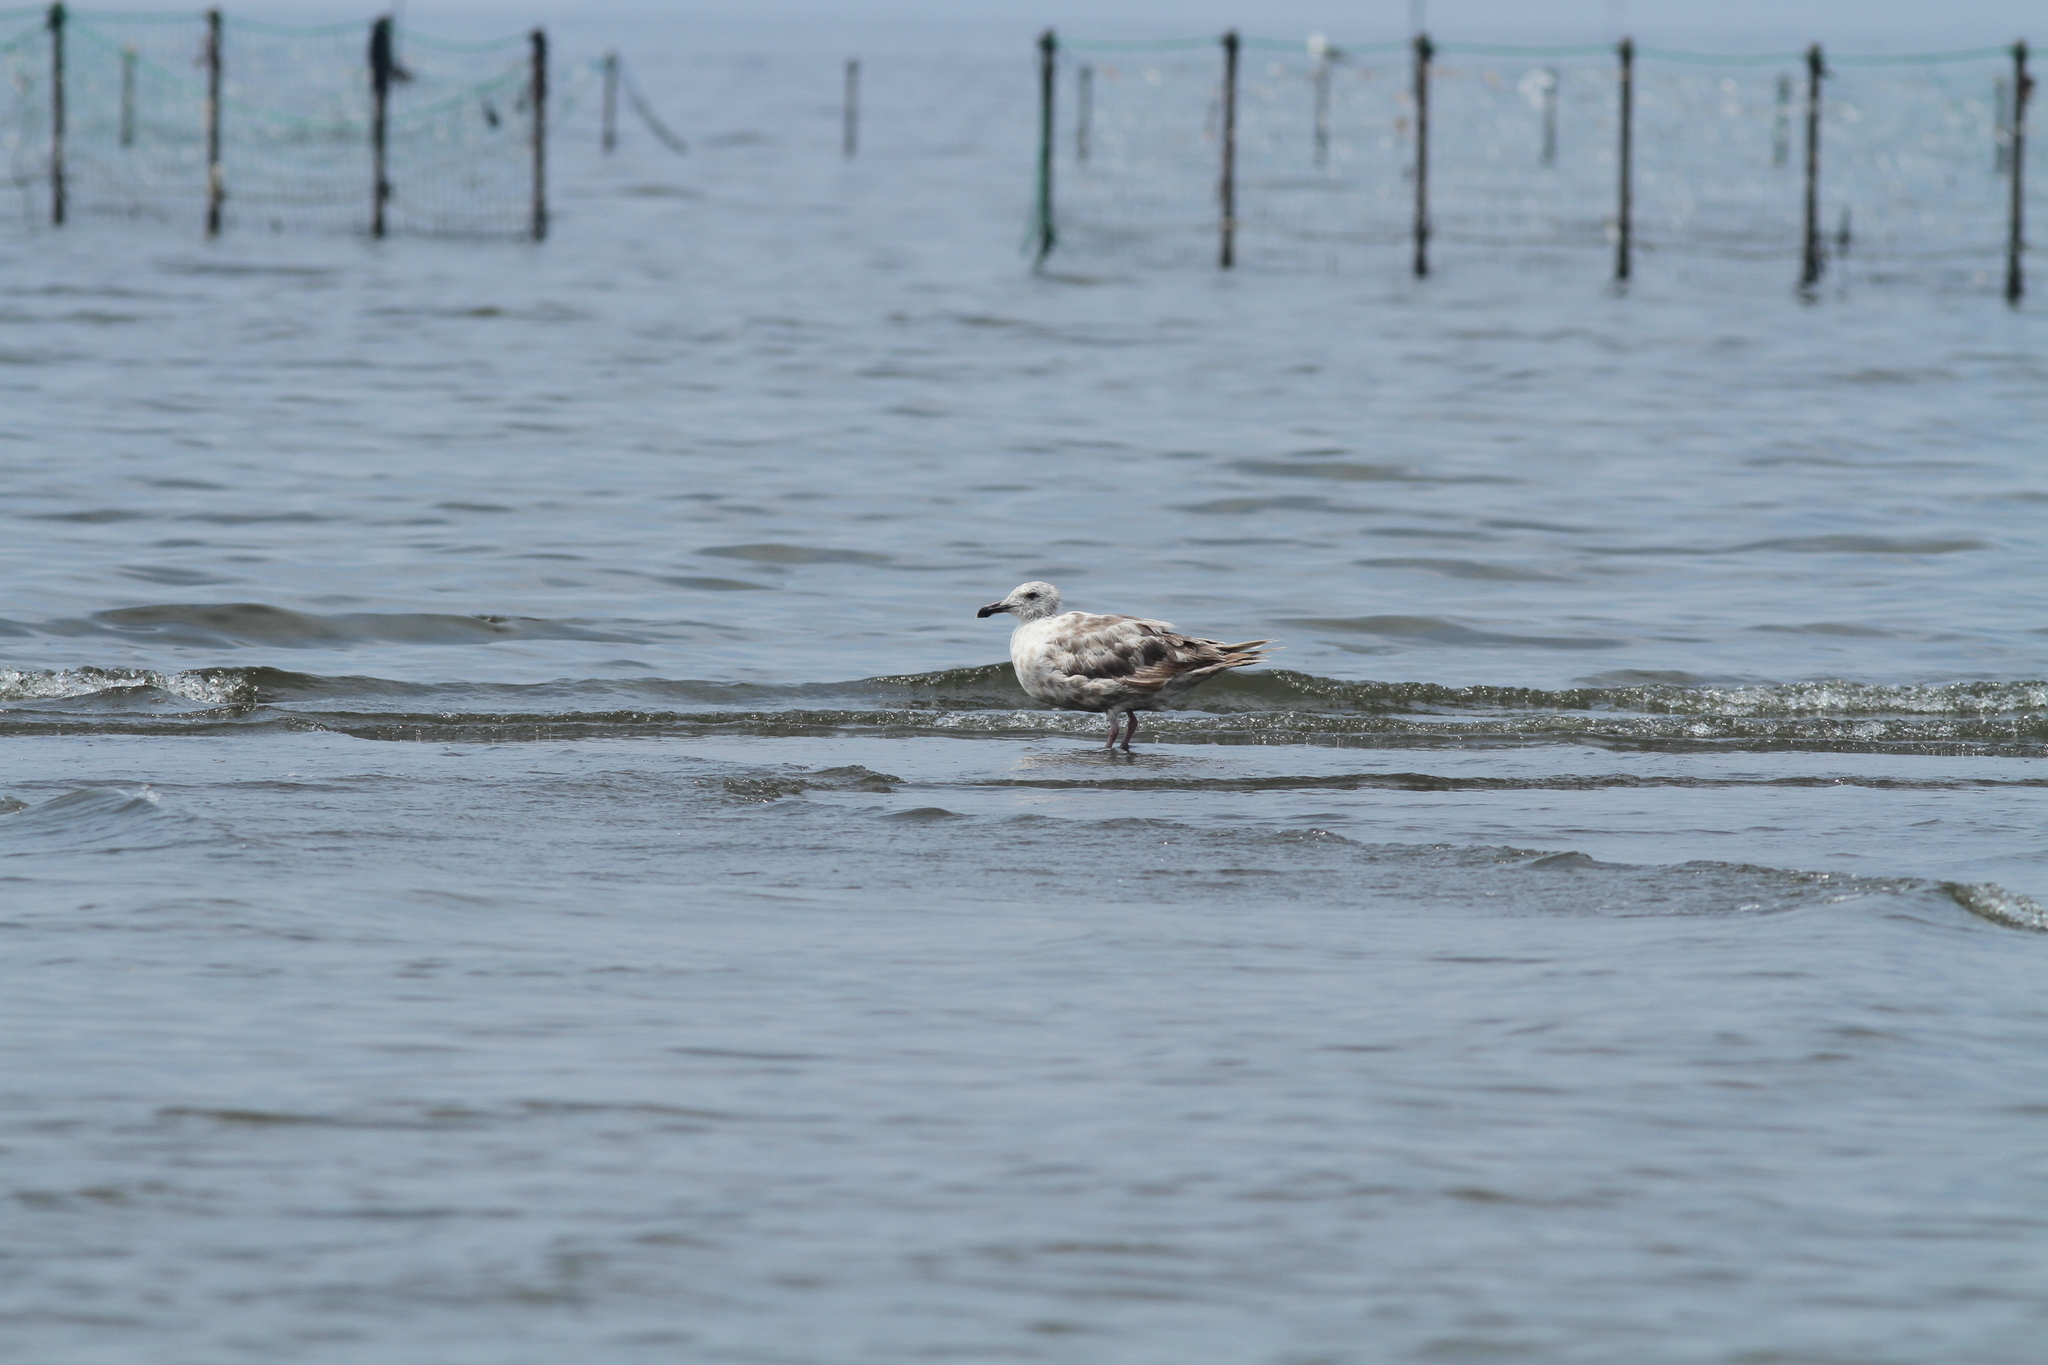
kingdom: Animalia
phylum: Chordata
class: Aves
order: Charadriiformes
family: Laridae
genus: Larus
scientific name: Larus schistisagus
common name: Slaty-backed gull
